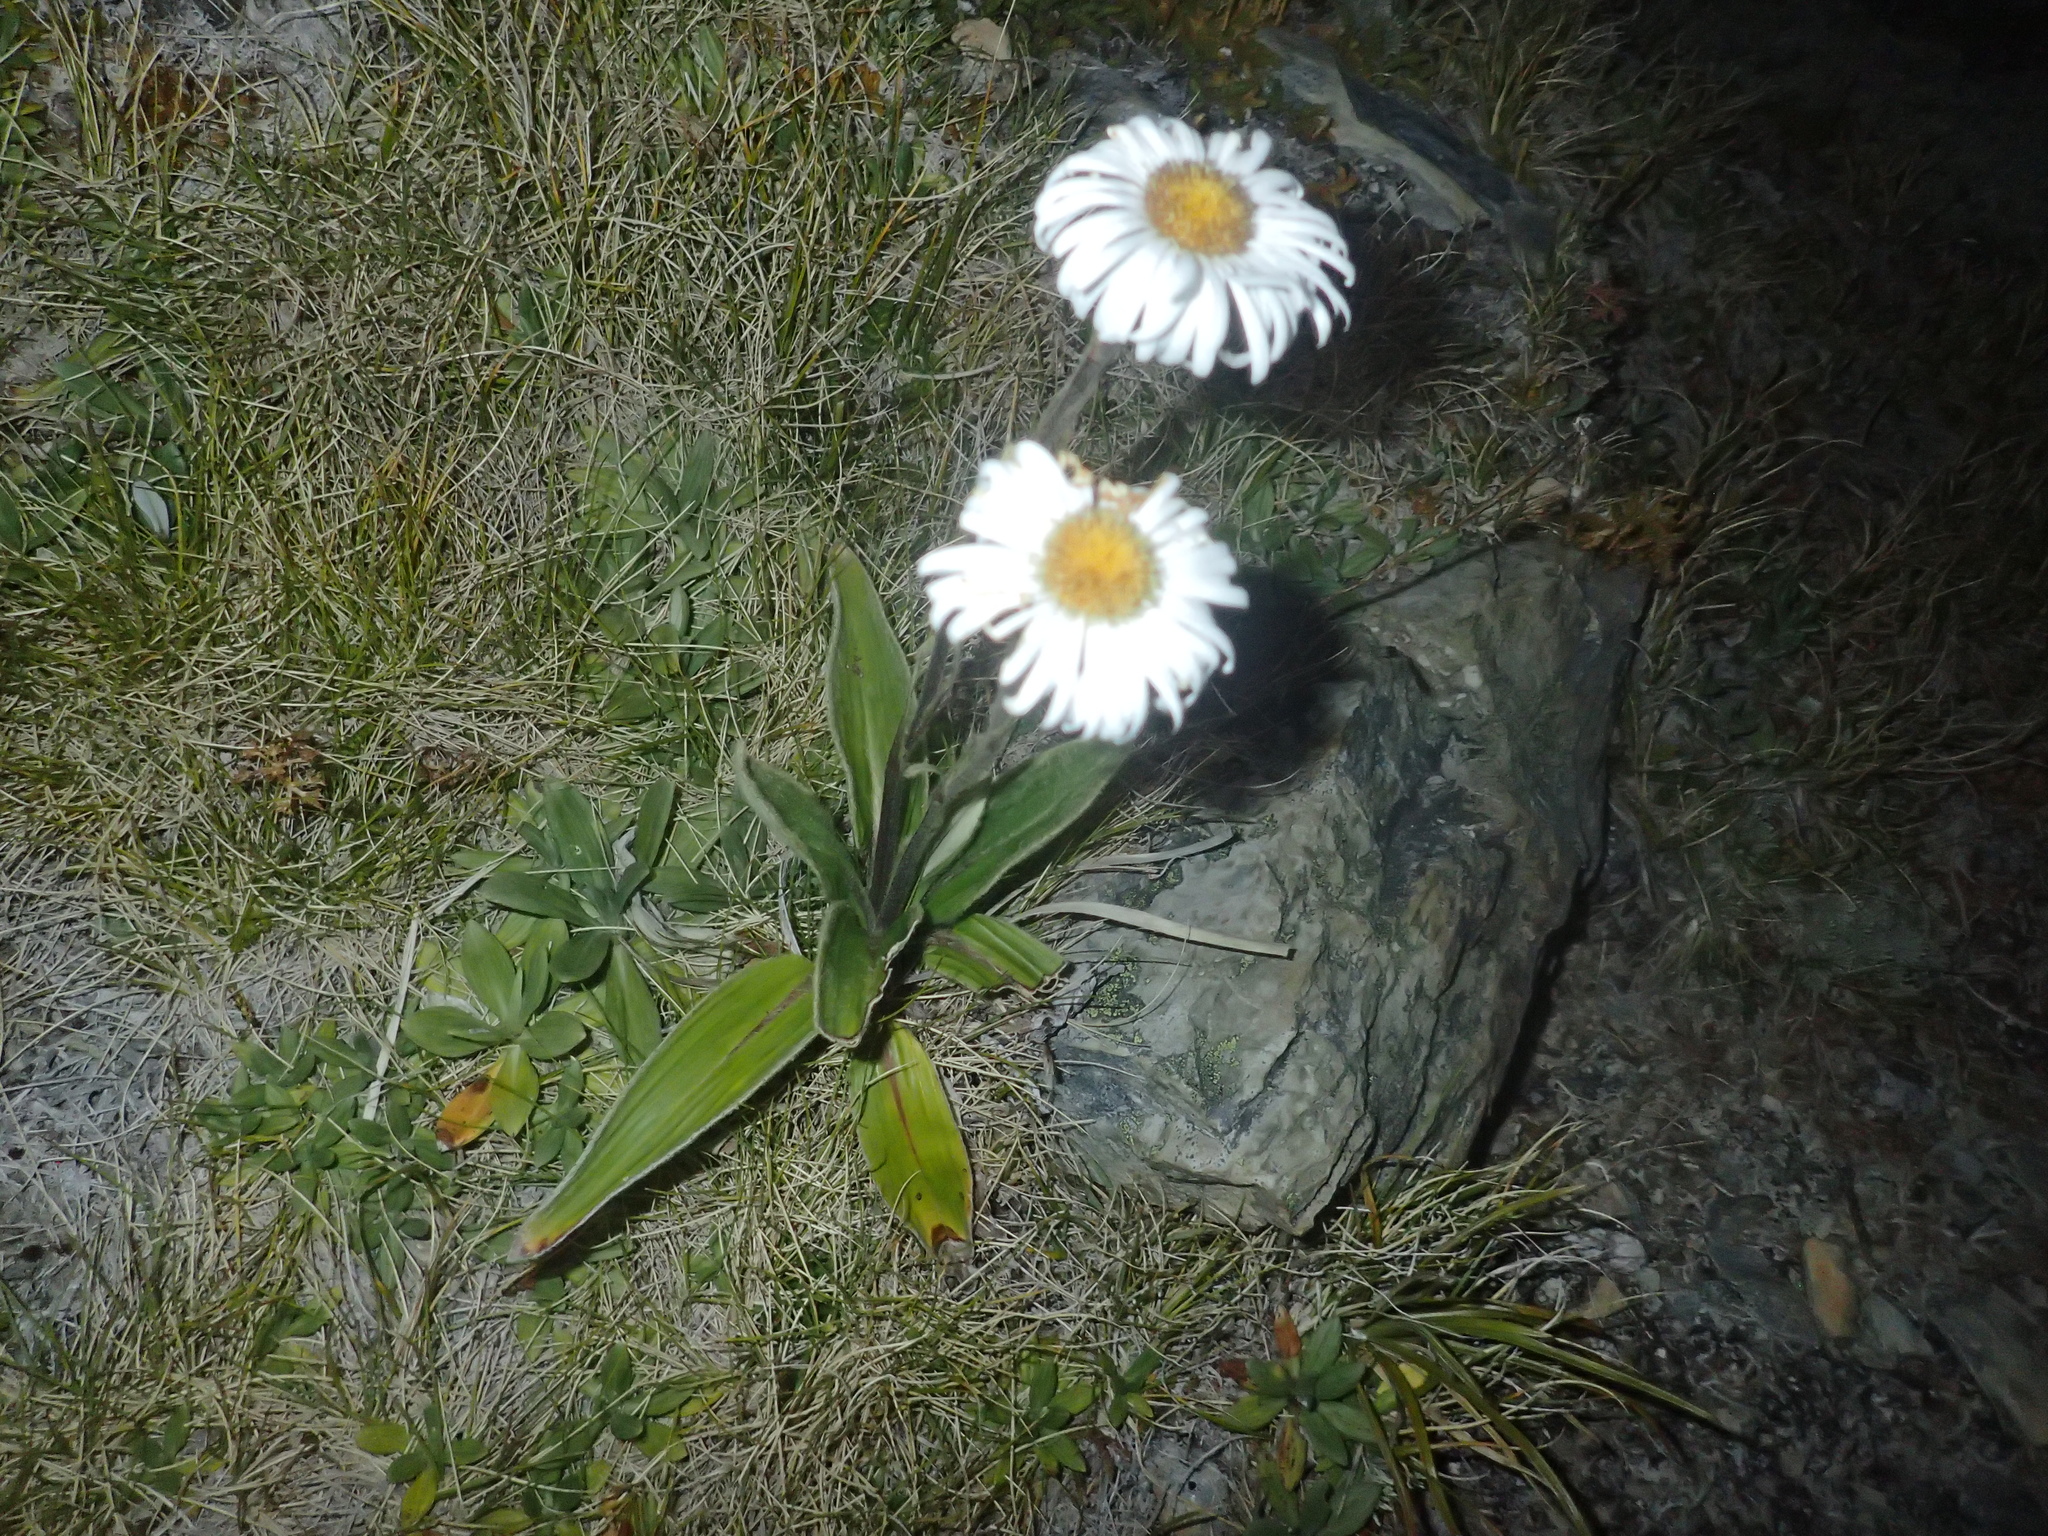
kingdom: Plantae
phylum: Tracheophyta
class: Magnoliopsida
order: Asterales
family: Asteraceae
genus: Celmisia
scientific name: Celmisia verbascifolia
